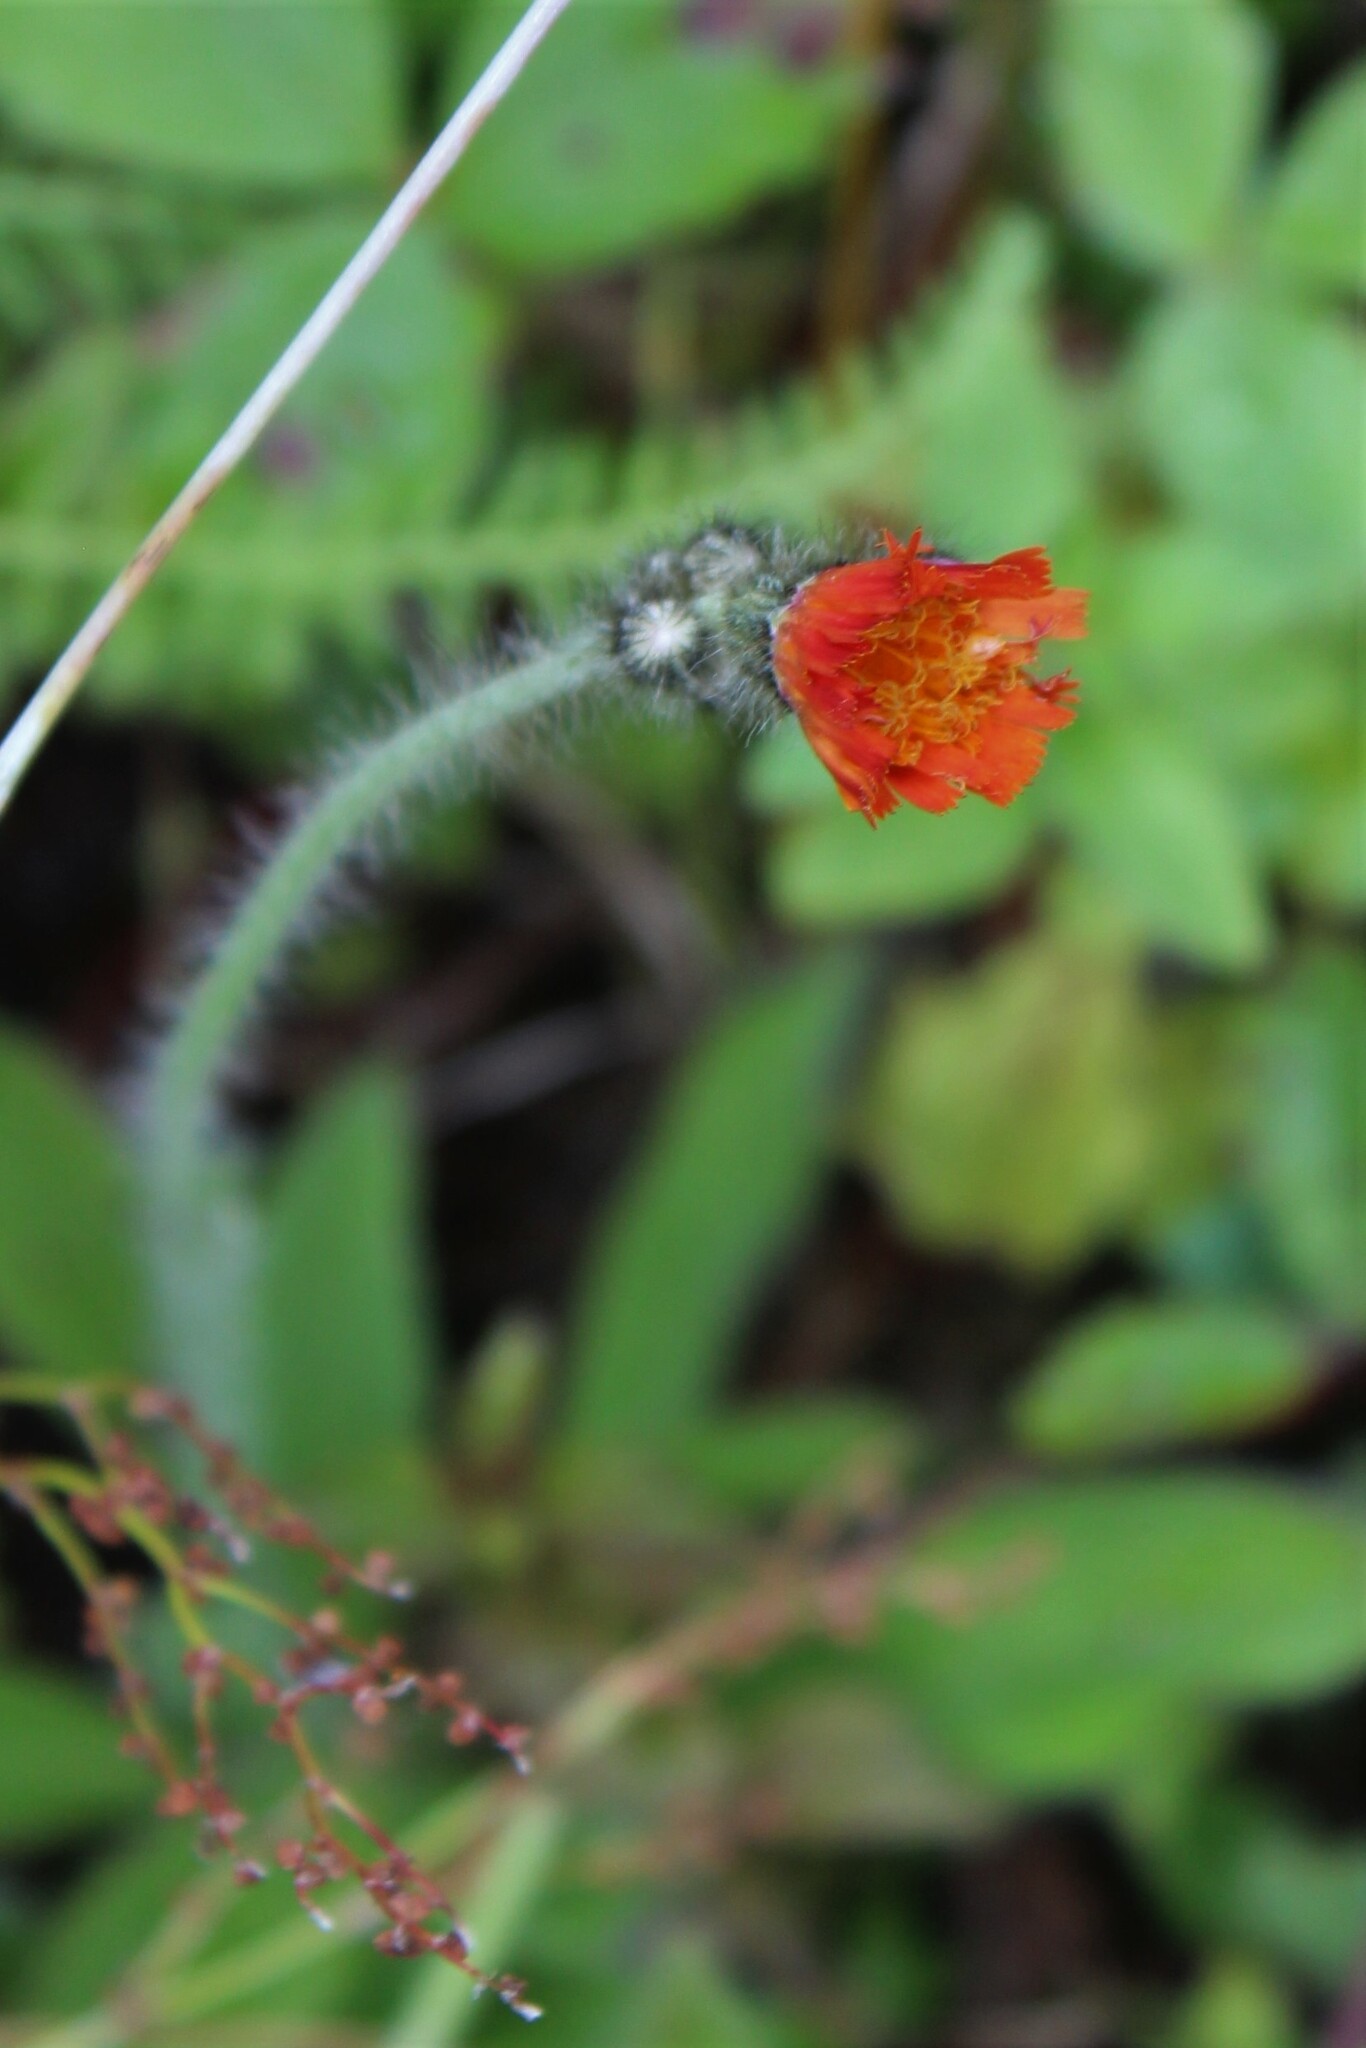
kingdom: Plantae
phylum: Tracheophyta
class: Magnoliopsida
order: Asterales
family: Asteraceae
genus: Pilosella
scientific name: Pilosella aurantiaca
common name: Fox-and-cubs
